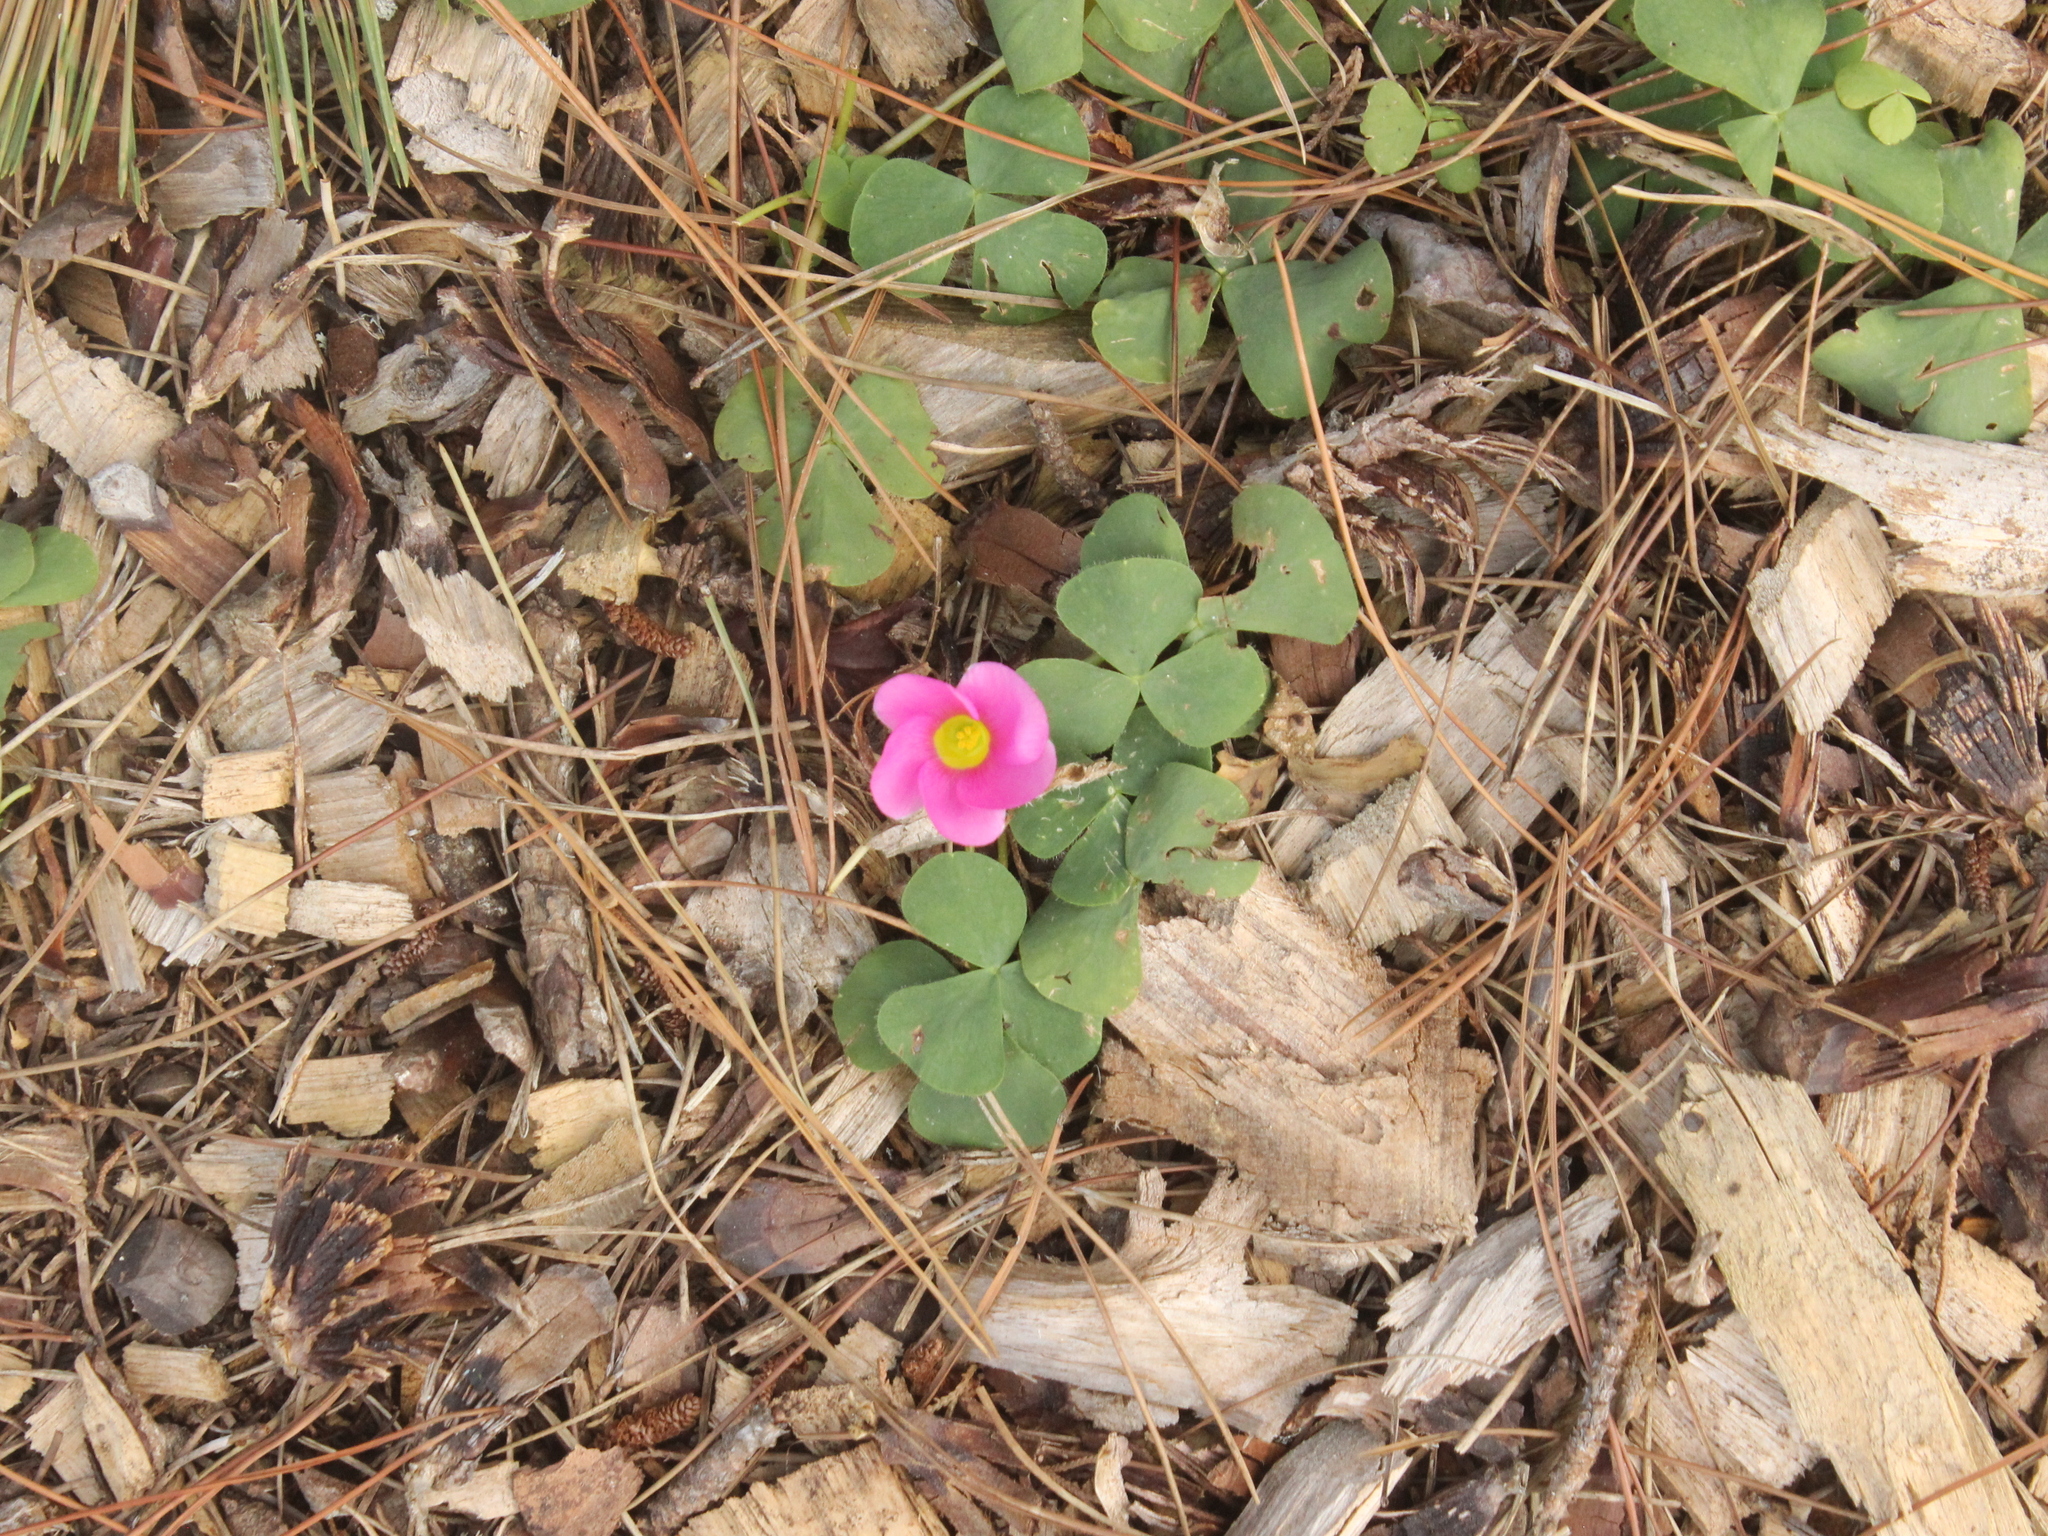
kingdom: Plantae
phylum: Tracheophyta
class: Magnoliopsida
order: Oxalidales
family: Oxalidaceae
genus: Oxalis
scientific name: Oxalis purpurea
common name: Purple woodsorrel
